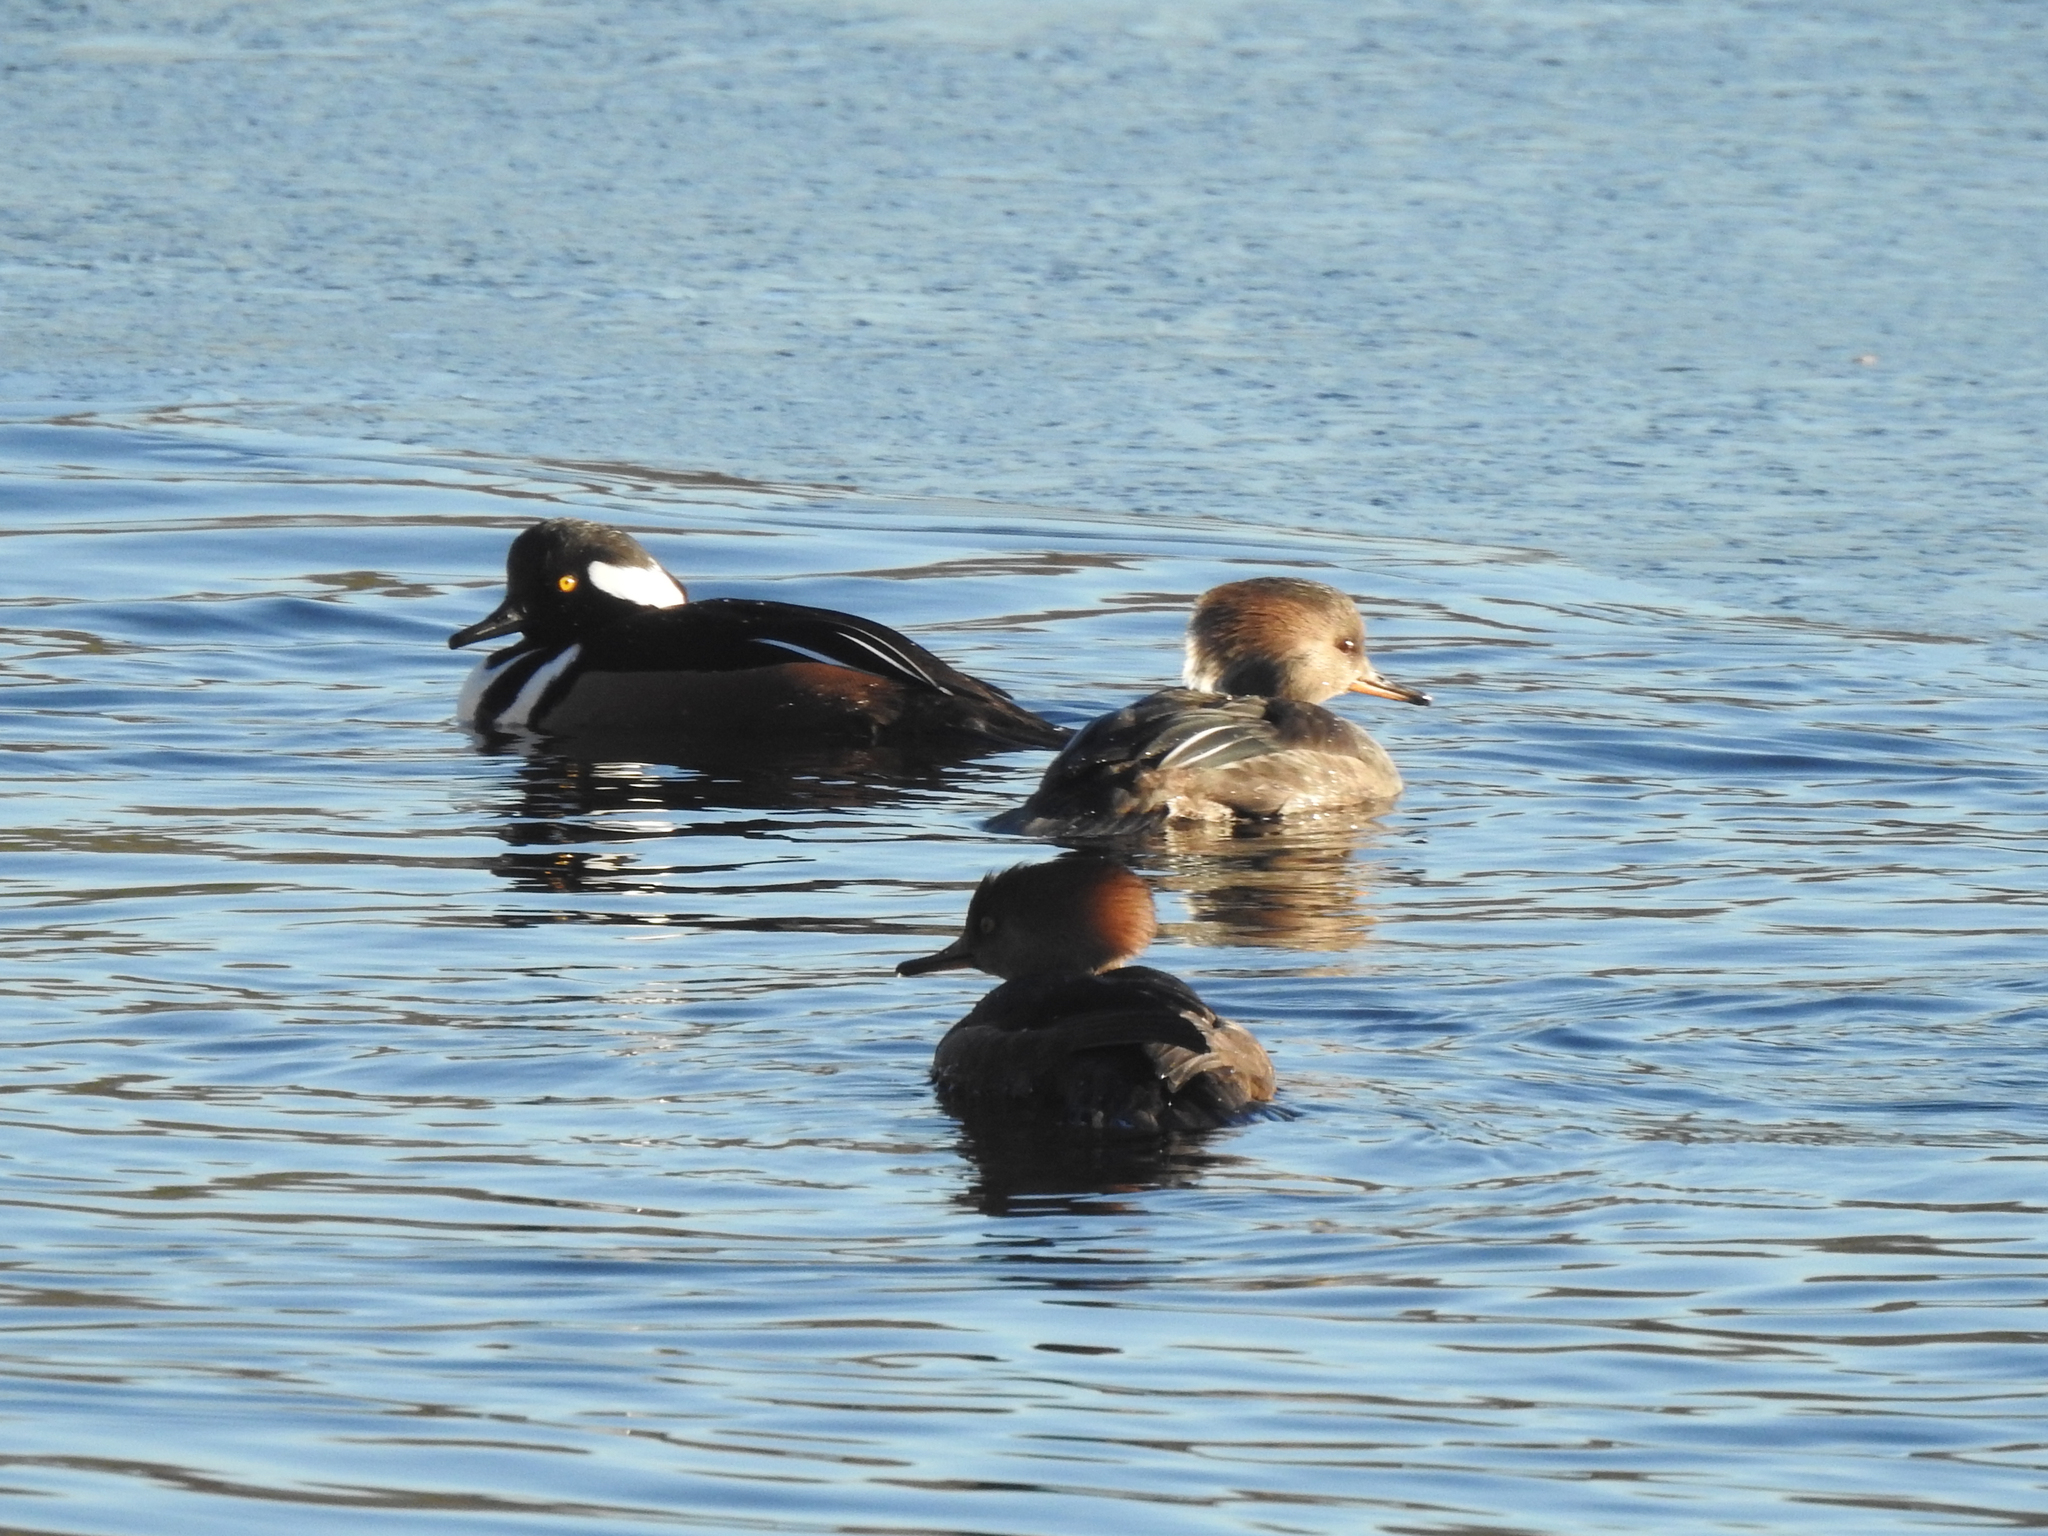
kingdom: Animalia
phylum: Chordata
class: Aves
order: Anseriformes
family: Anatidae
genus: Lophodytes
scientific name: Lophodytes cucullatus
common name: Hooded merganser
